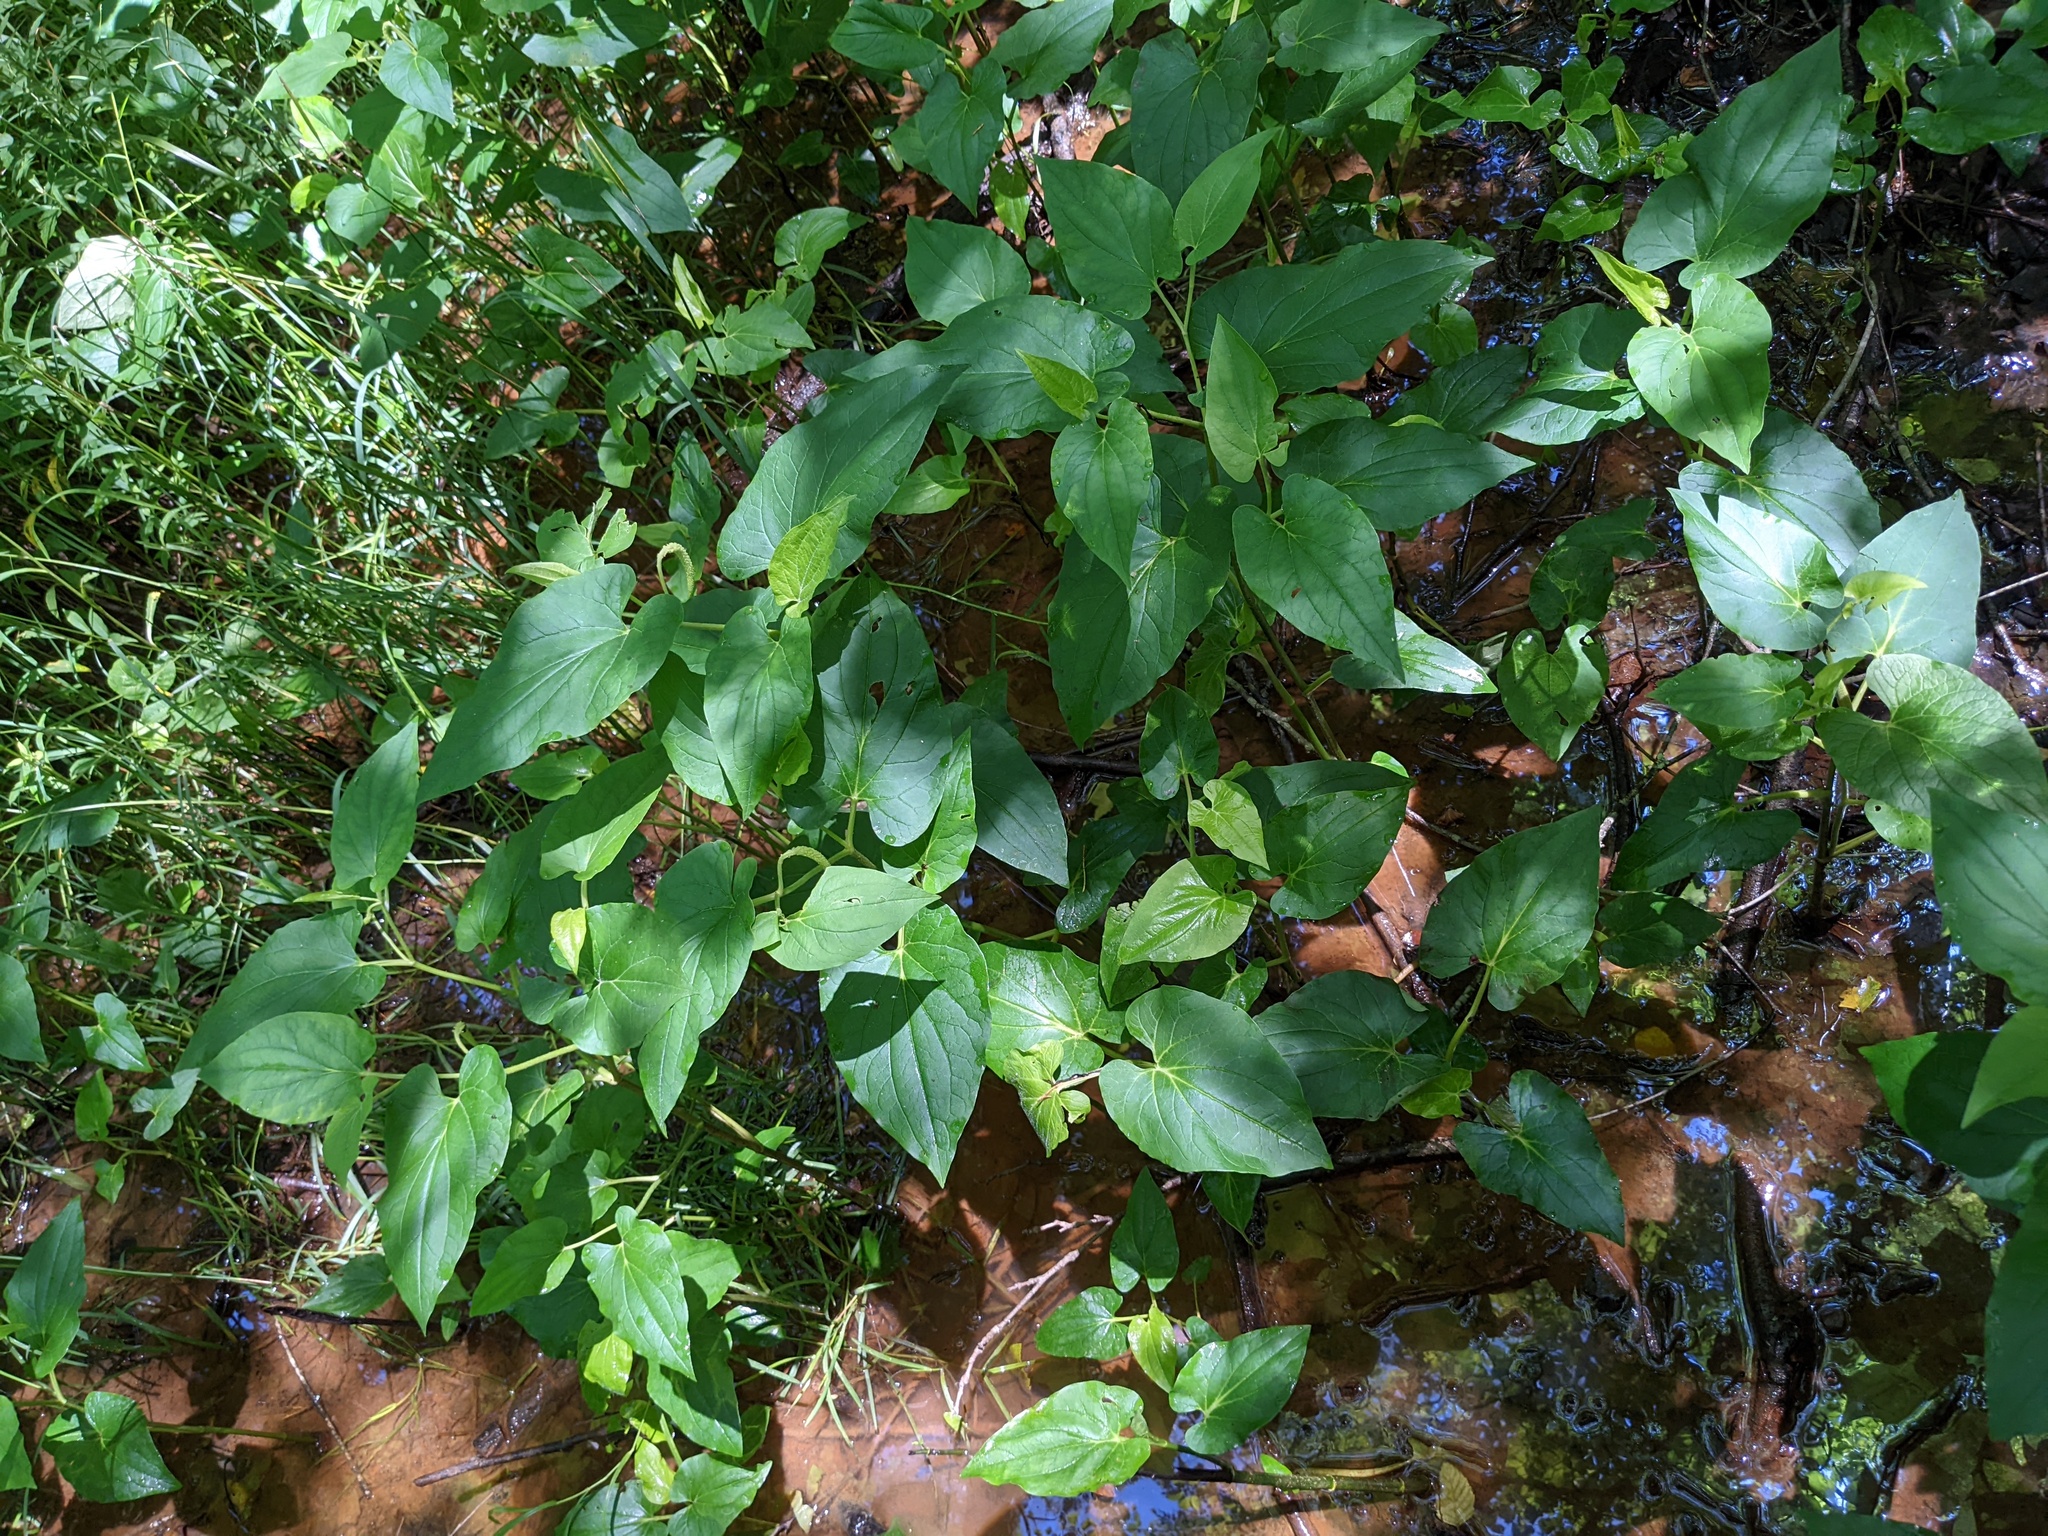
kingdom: Plantae
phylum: Tracheophyta
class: Magnoliopsida
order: Piperales
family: Saururaceae
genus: Saururus
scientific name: Saururus cernuus
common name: Lizard's-tail
